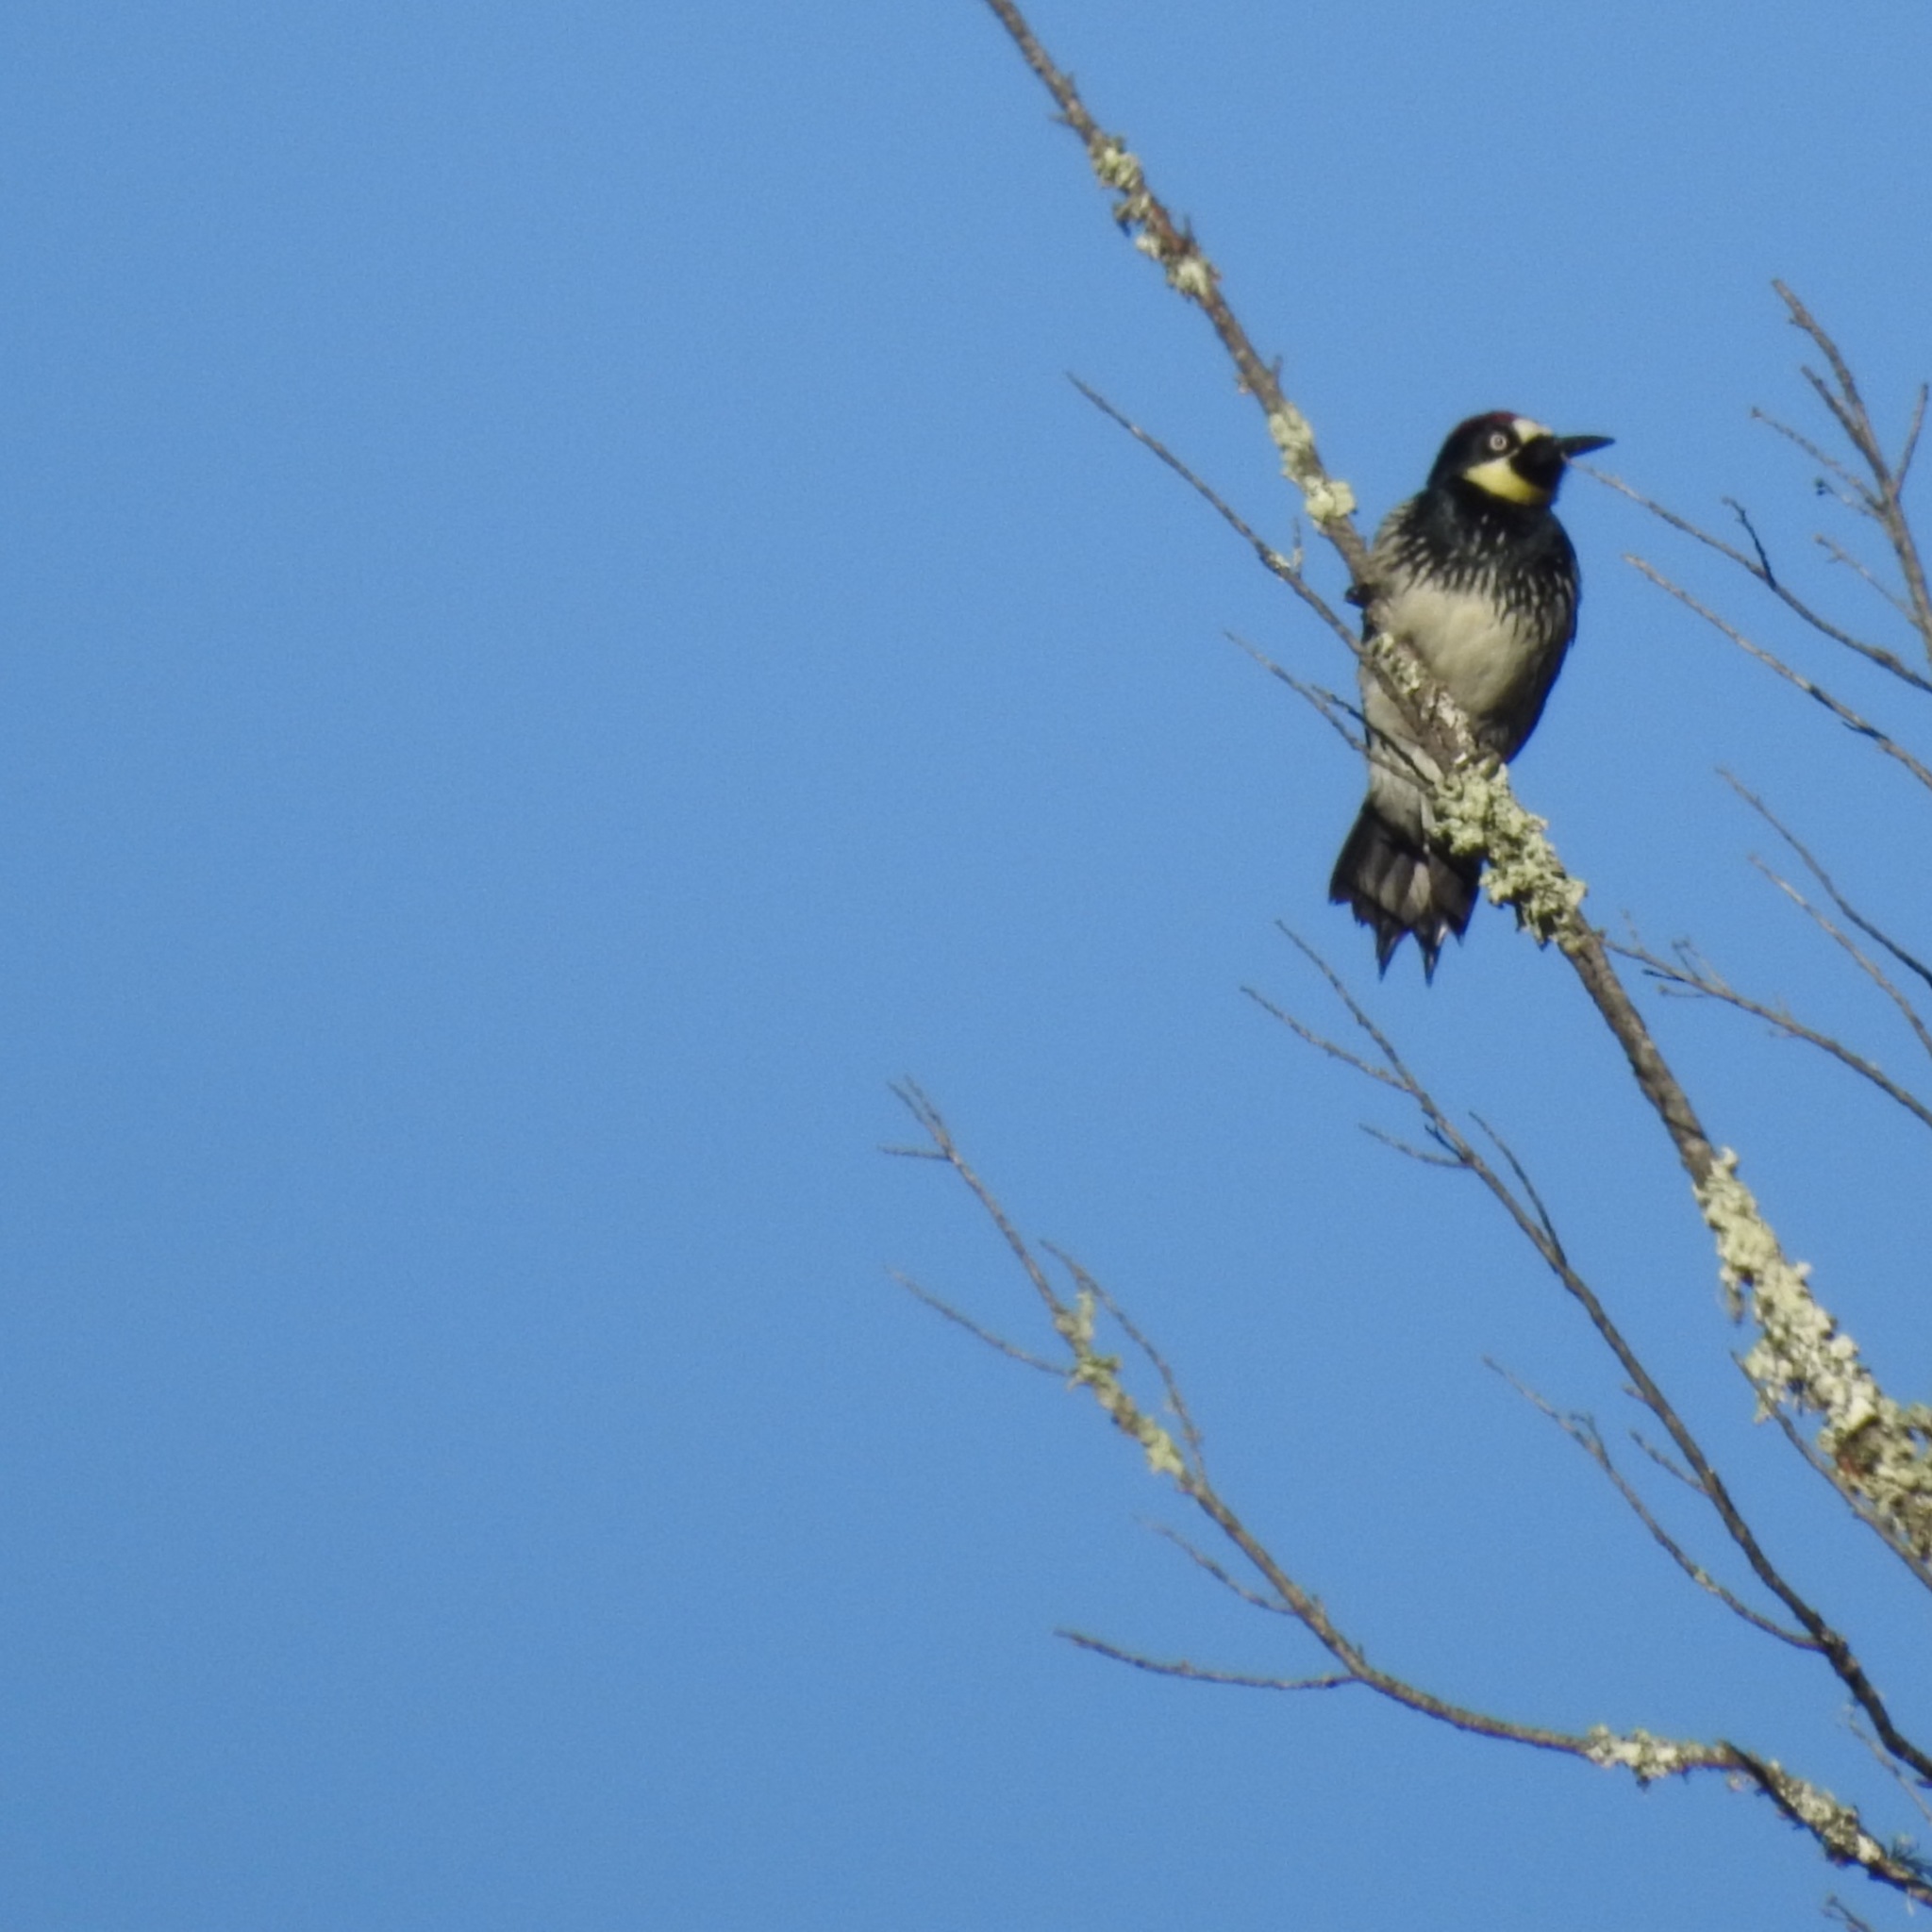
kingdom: Animalia
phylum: Chordata
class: Aves
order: Piciformes
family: Picidae
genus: Melanerpes
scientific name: Melanerpes formicivorus
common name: Acorn woodpecker
